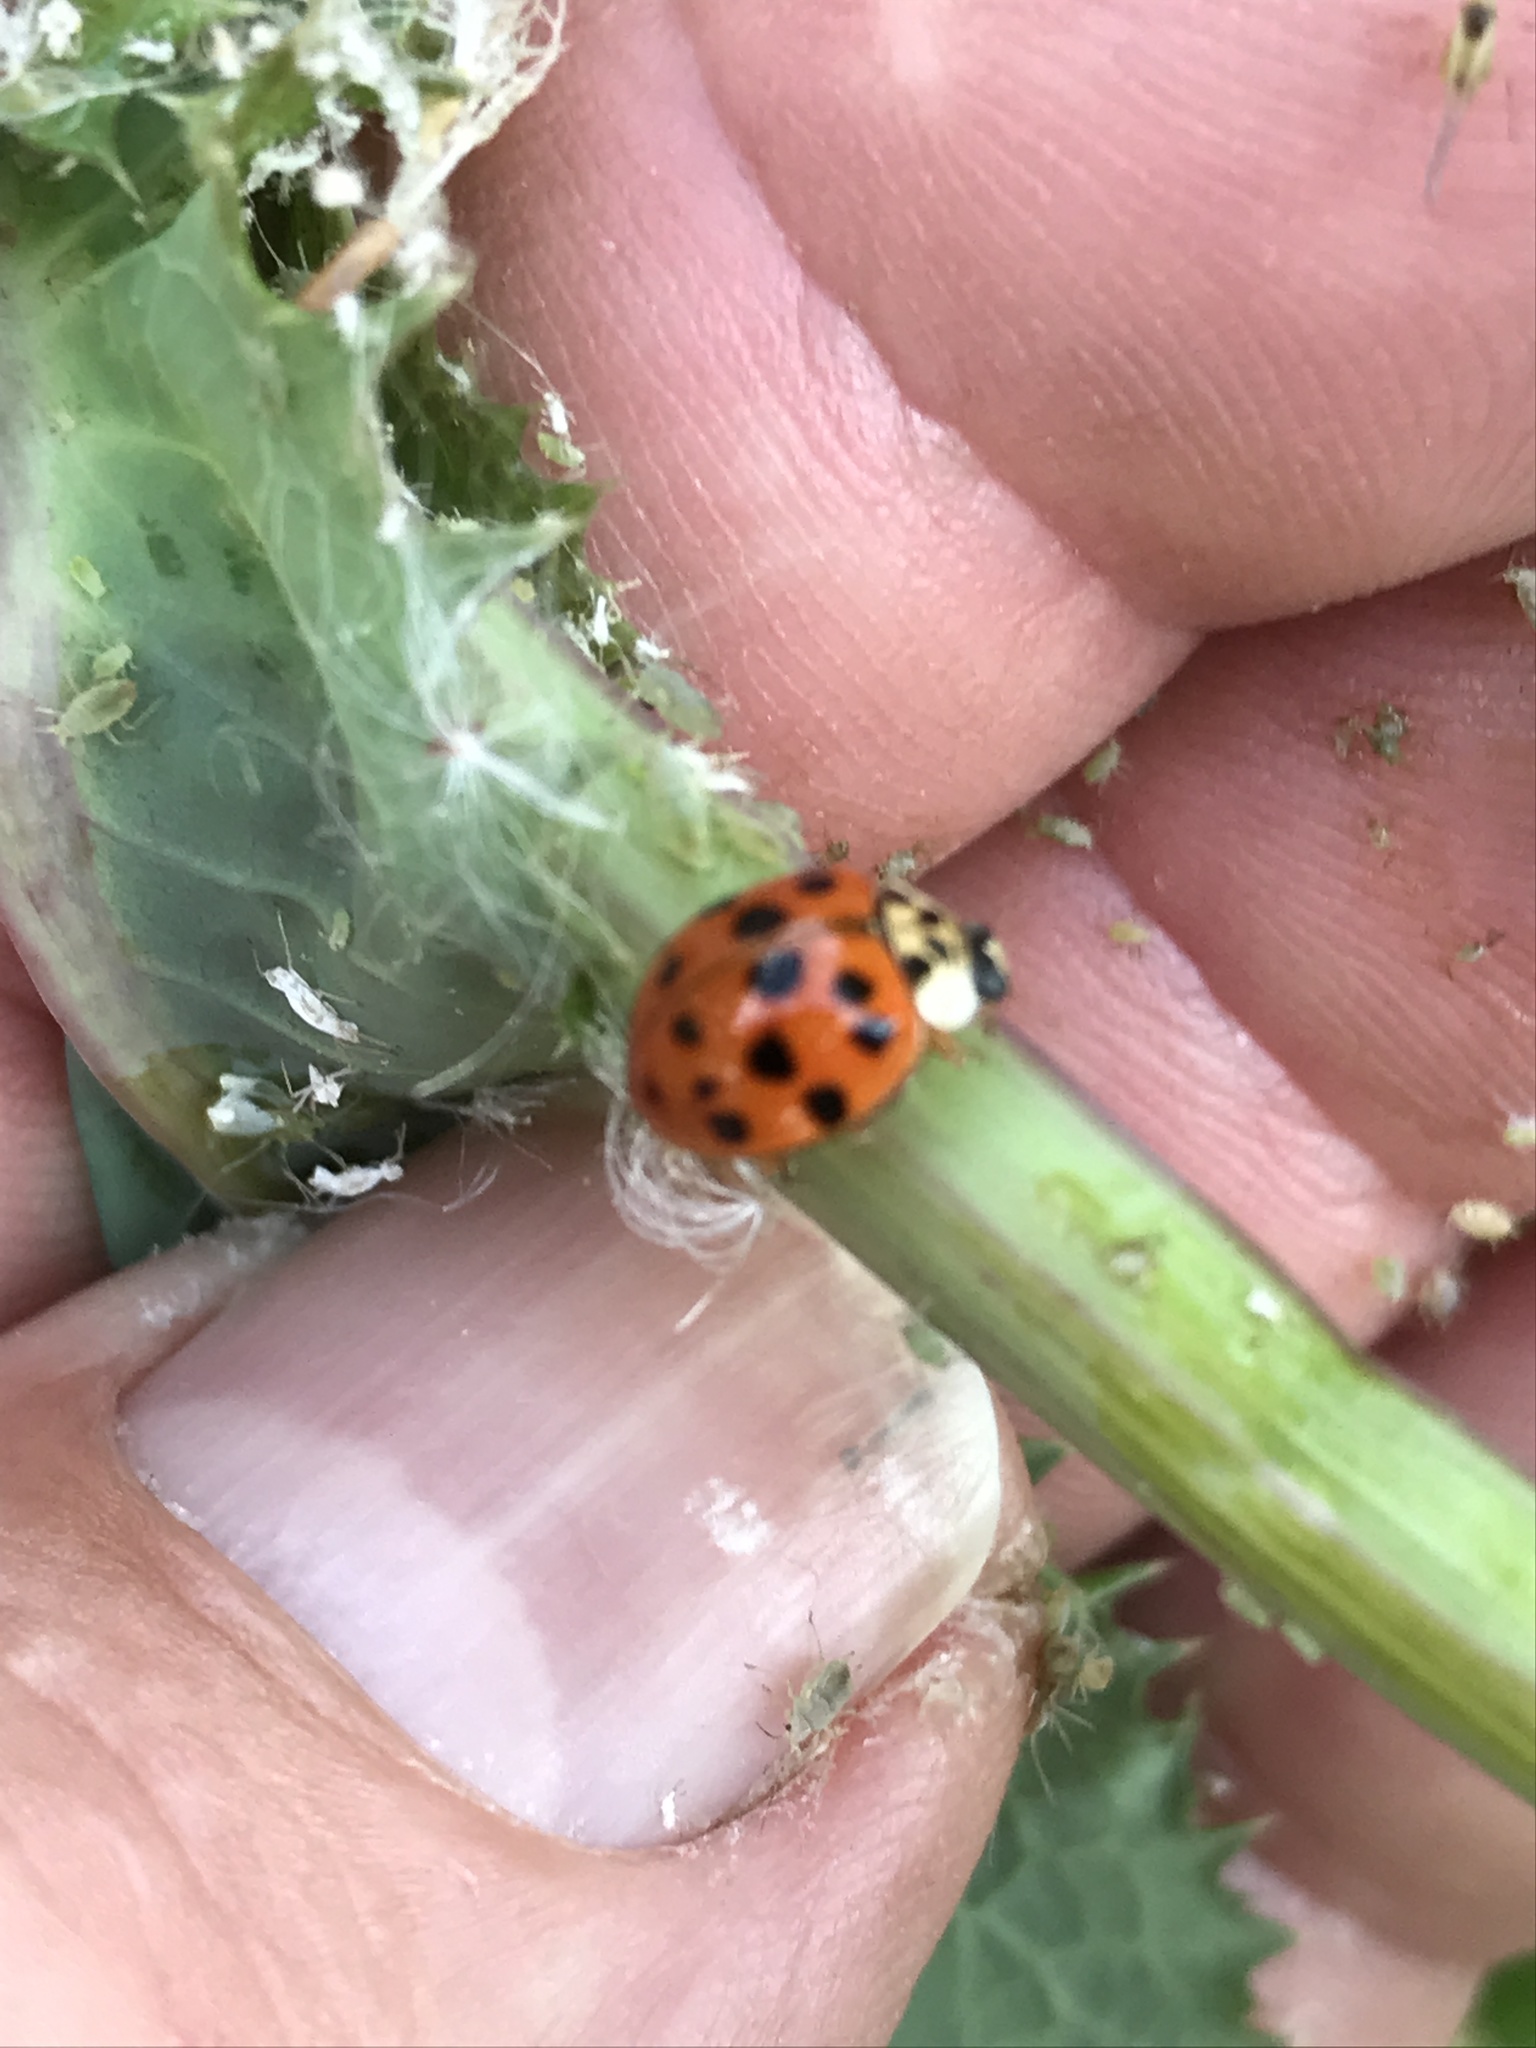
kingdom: Animalia
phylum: Arthropoda
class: Insecta
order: Coleoptera
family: Coccinellidae
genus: Harmonia
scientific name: Harmonia axyridis
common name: Harlequin ladybird
